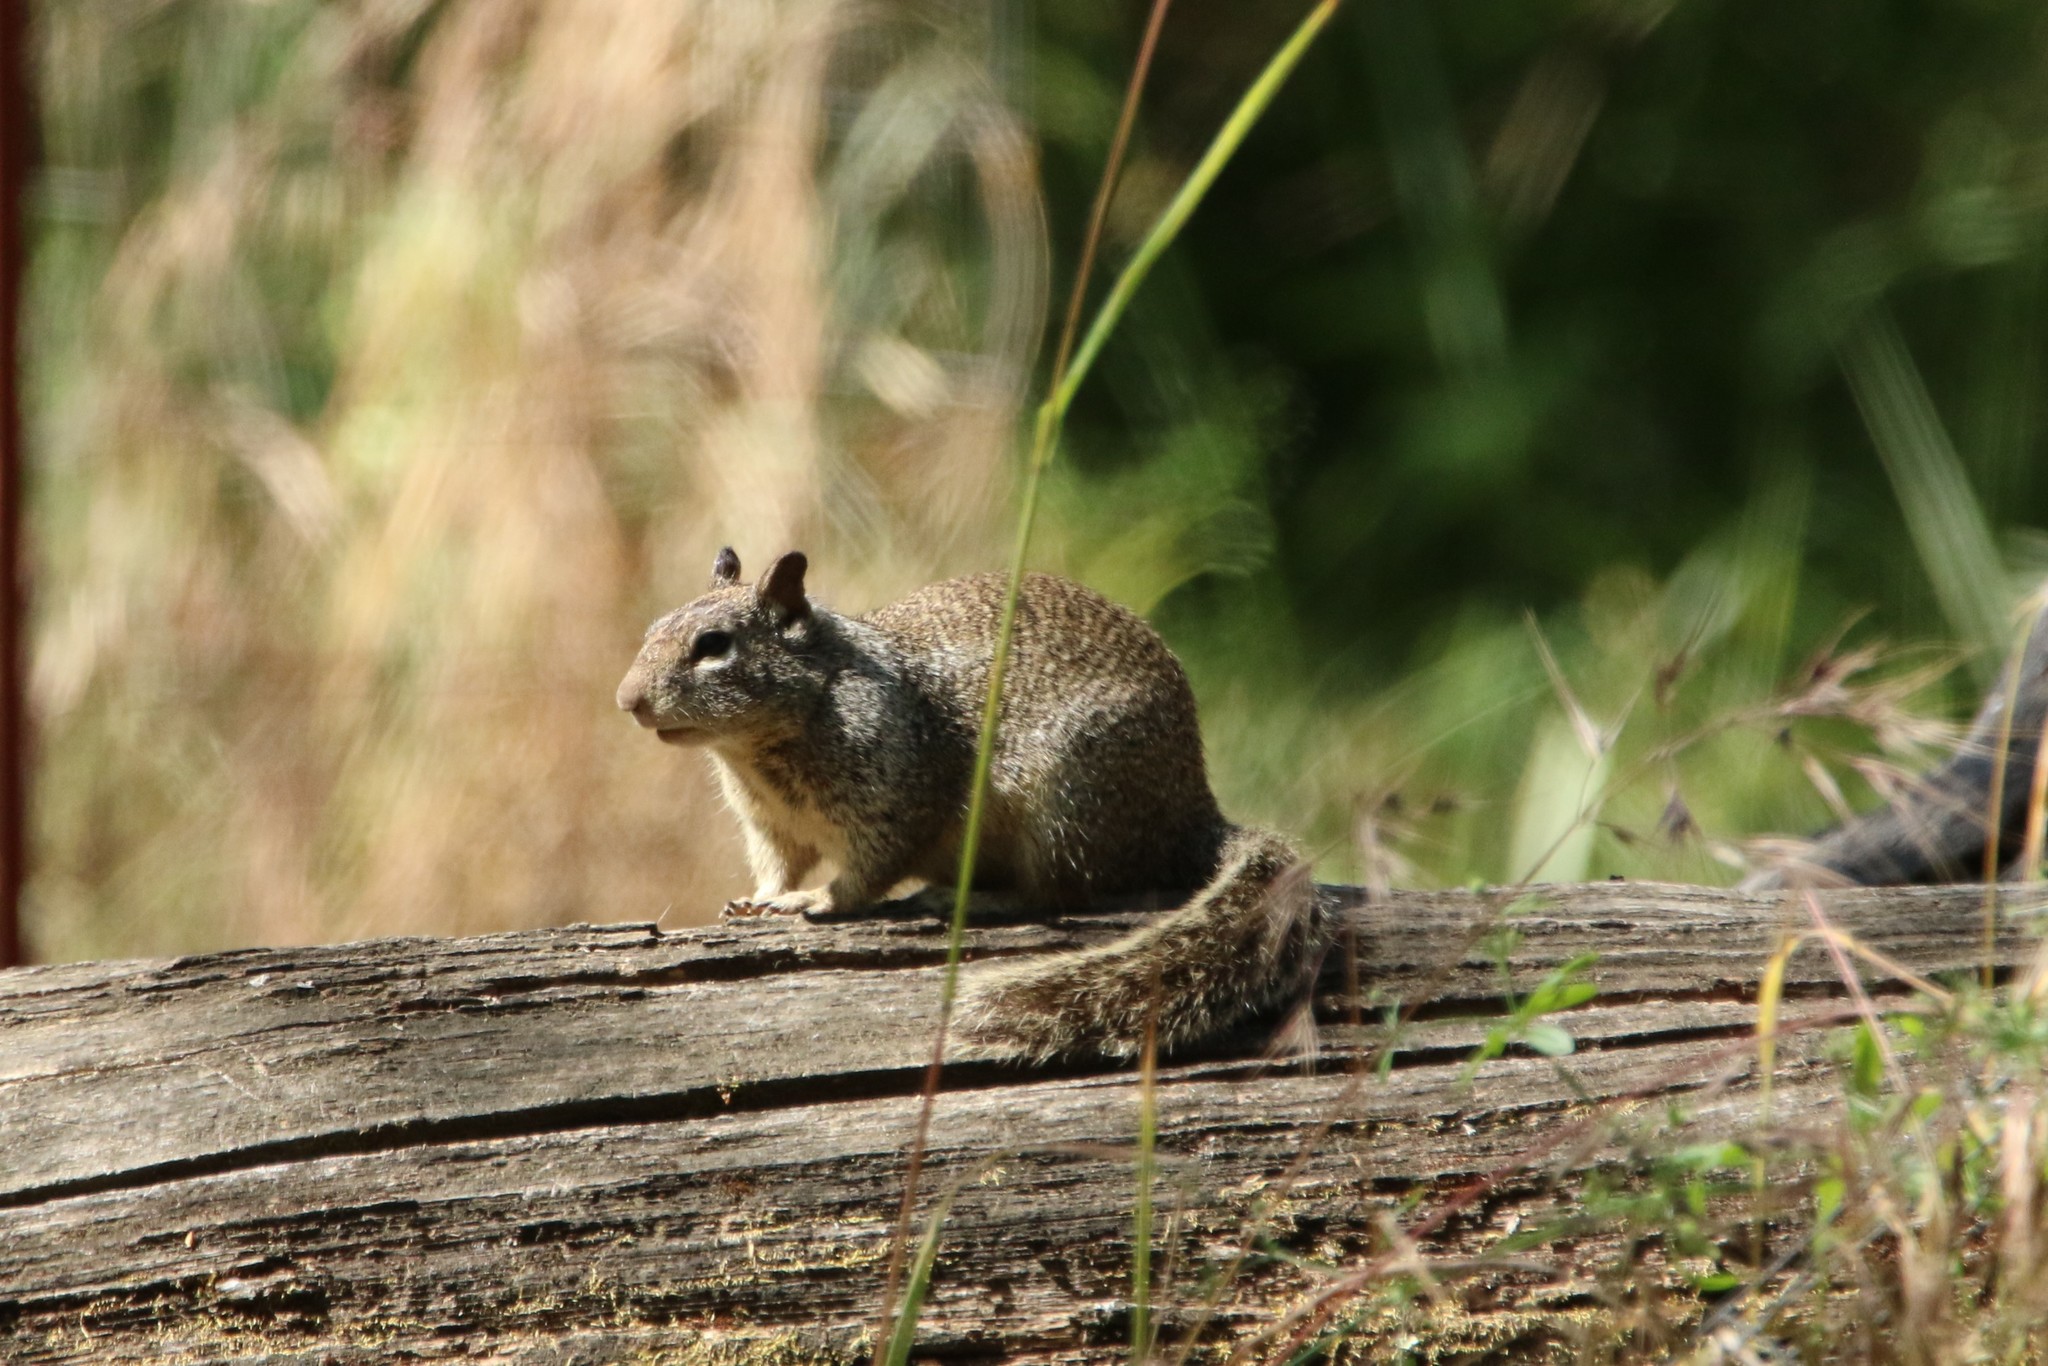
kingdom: Animalia
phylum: Chordata
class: Mammalia
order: Rodentia
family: Sciuridae
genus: Otospermophilus
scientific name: Otospermophilus beecheyi
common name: California ground squirrel
